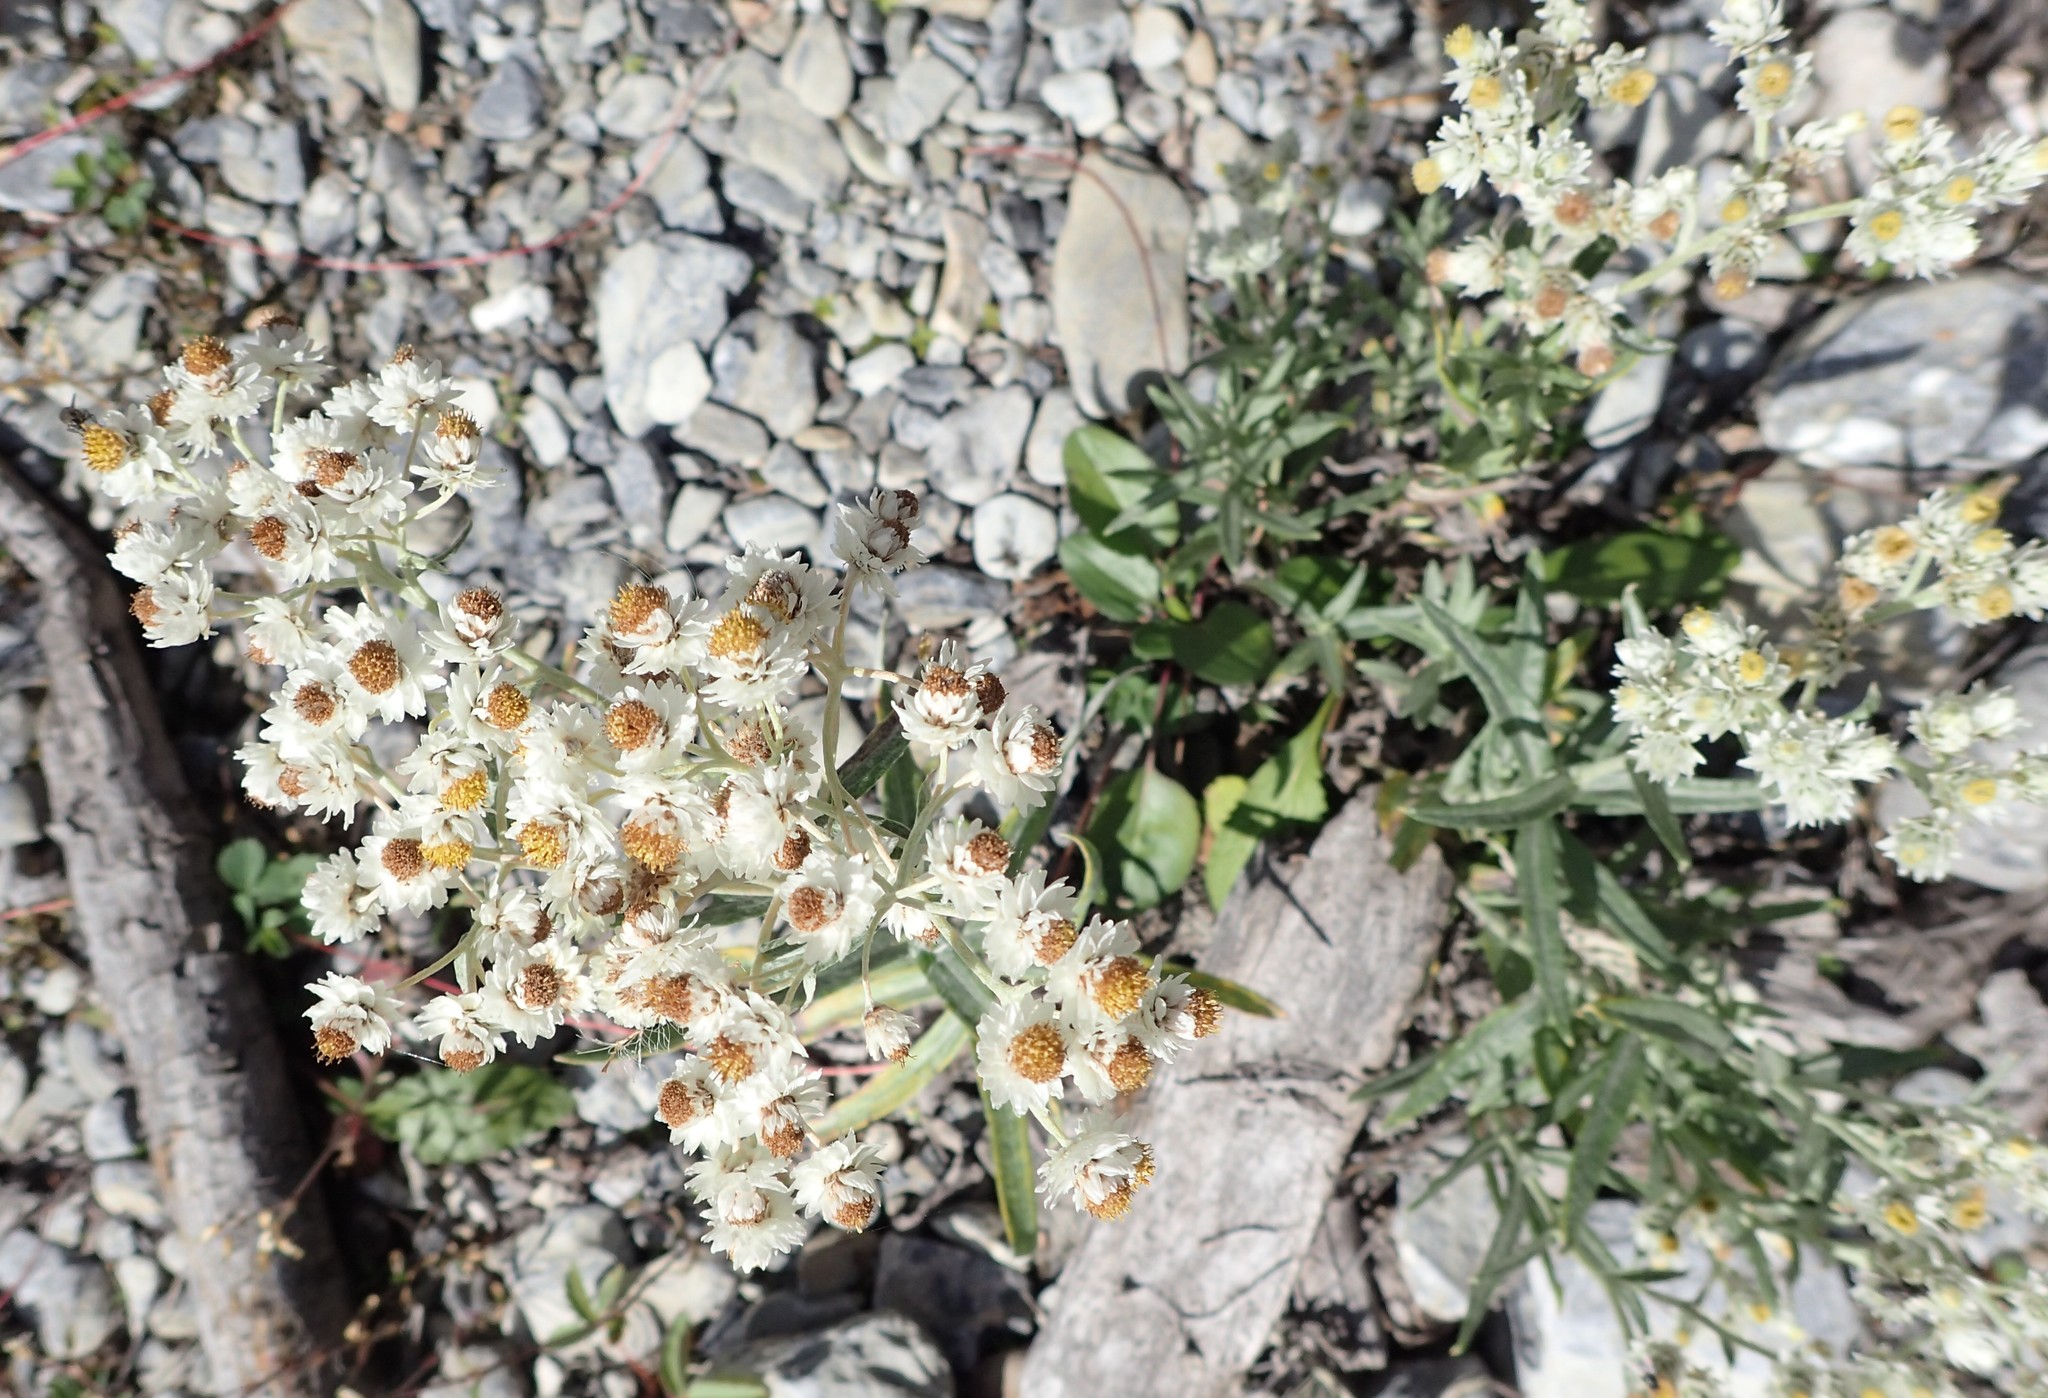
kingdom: Plantae
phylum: Tracheophyta
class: Magnoliopsida
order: Asterales
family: Asteraceae
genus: Anaphalis
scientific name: Anaphalis margaritacea
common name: Pearly everlasting
